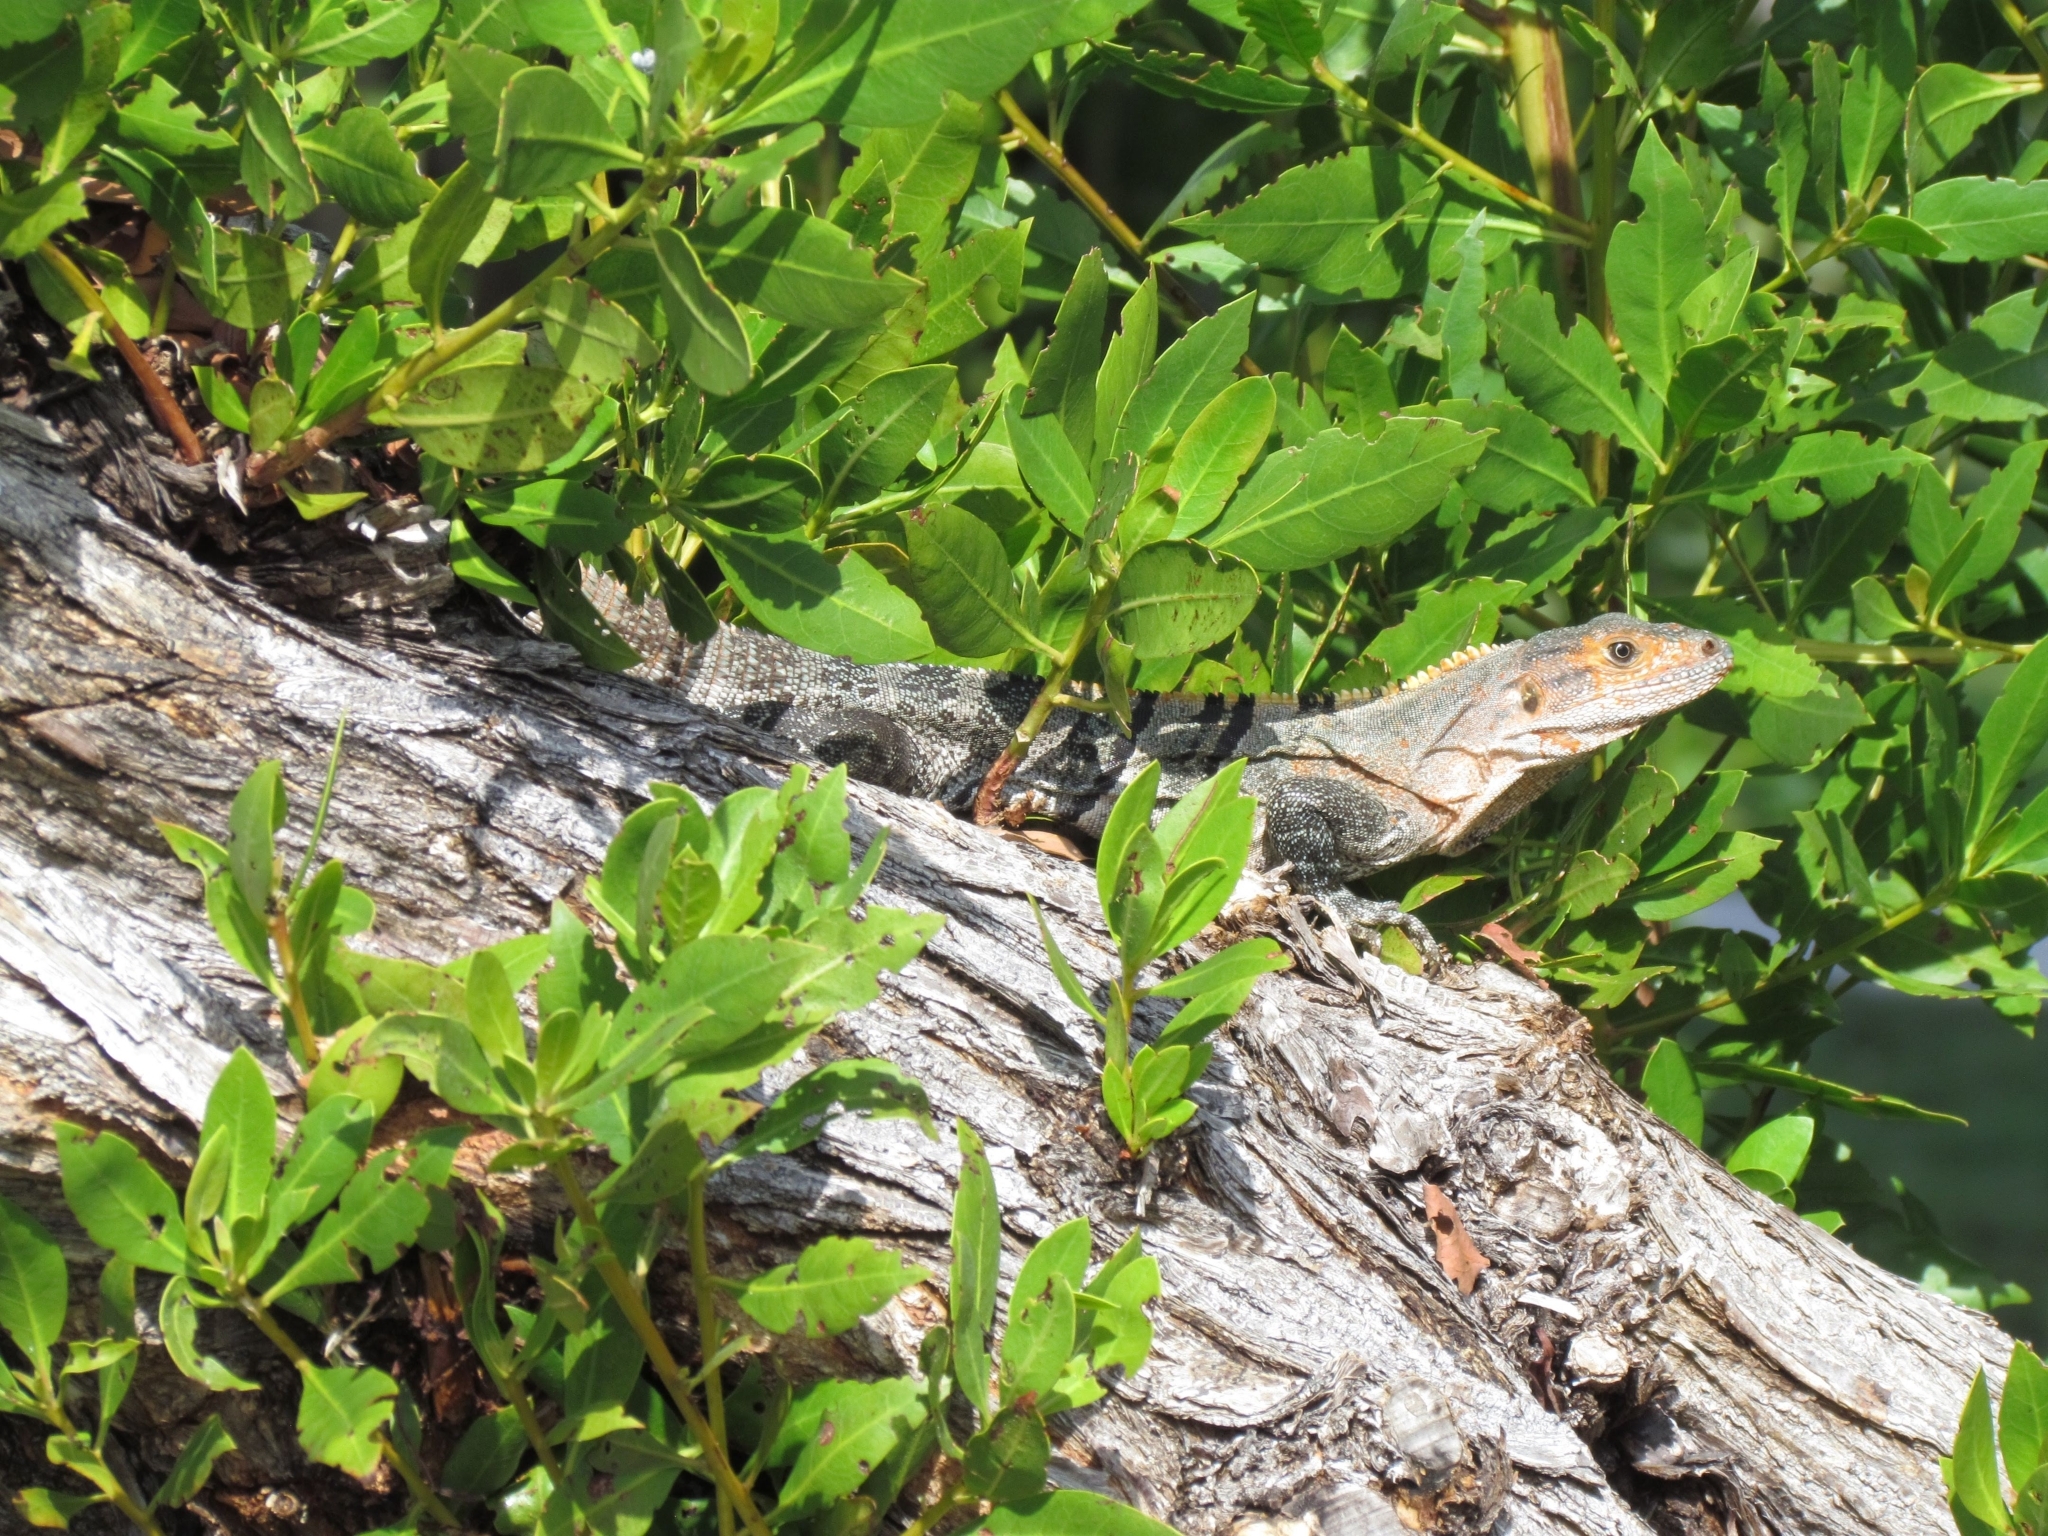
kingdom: Animalia
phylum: Chordata
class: Squamata
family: Iguanidae
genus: Ctenosaura
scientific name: Ctenosaura similis
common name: Black spiny-tailed iguana
